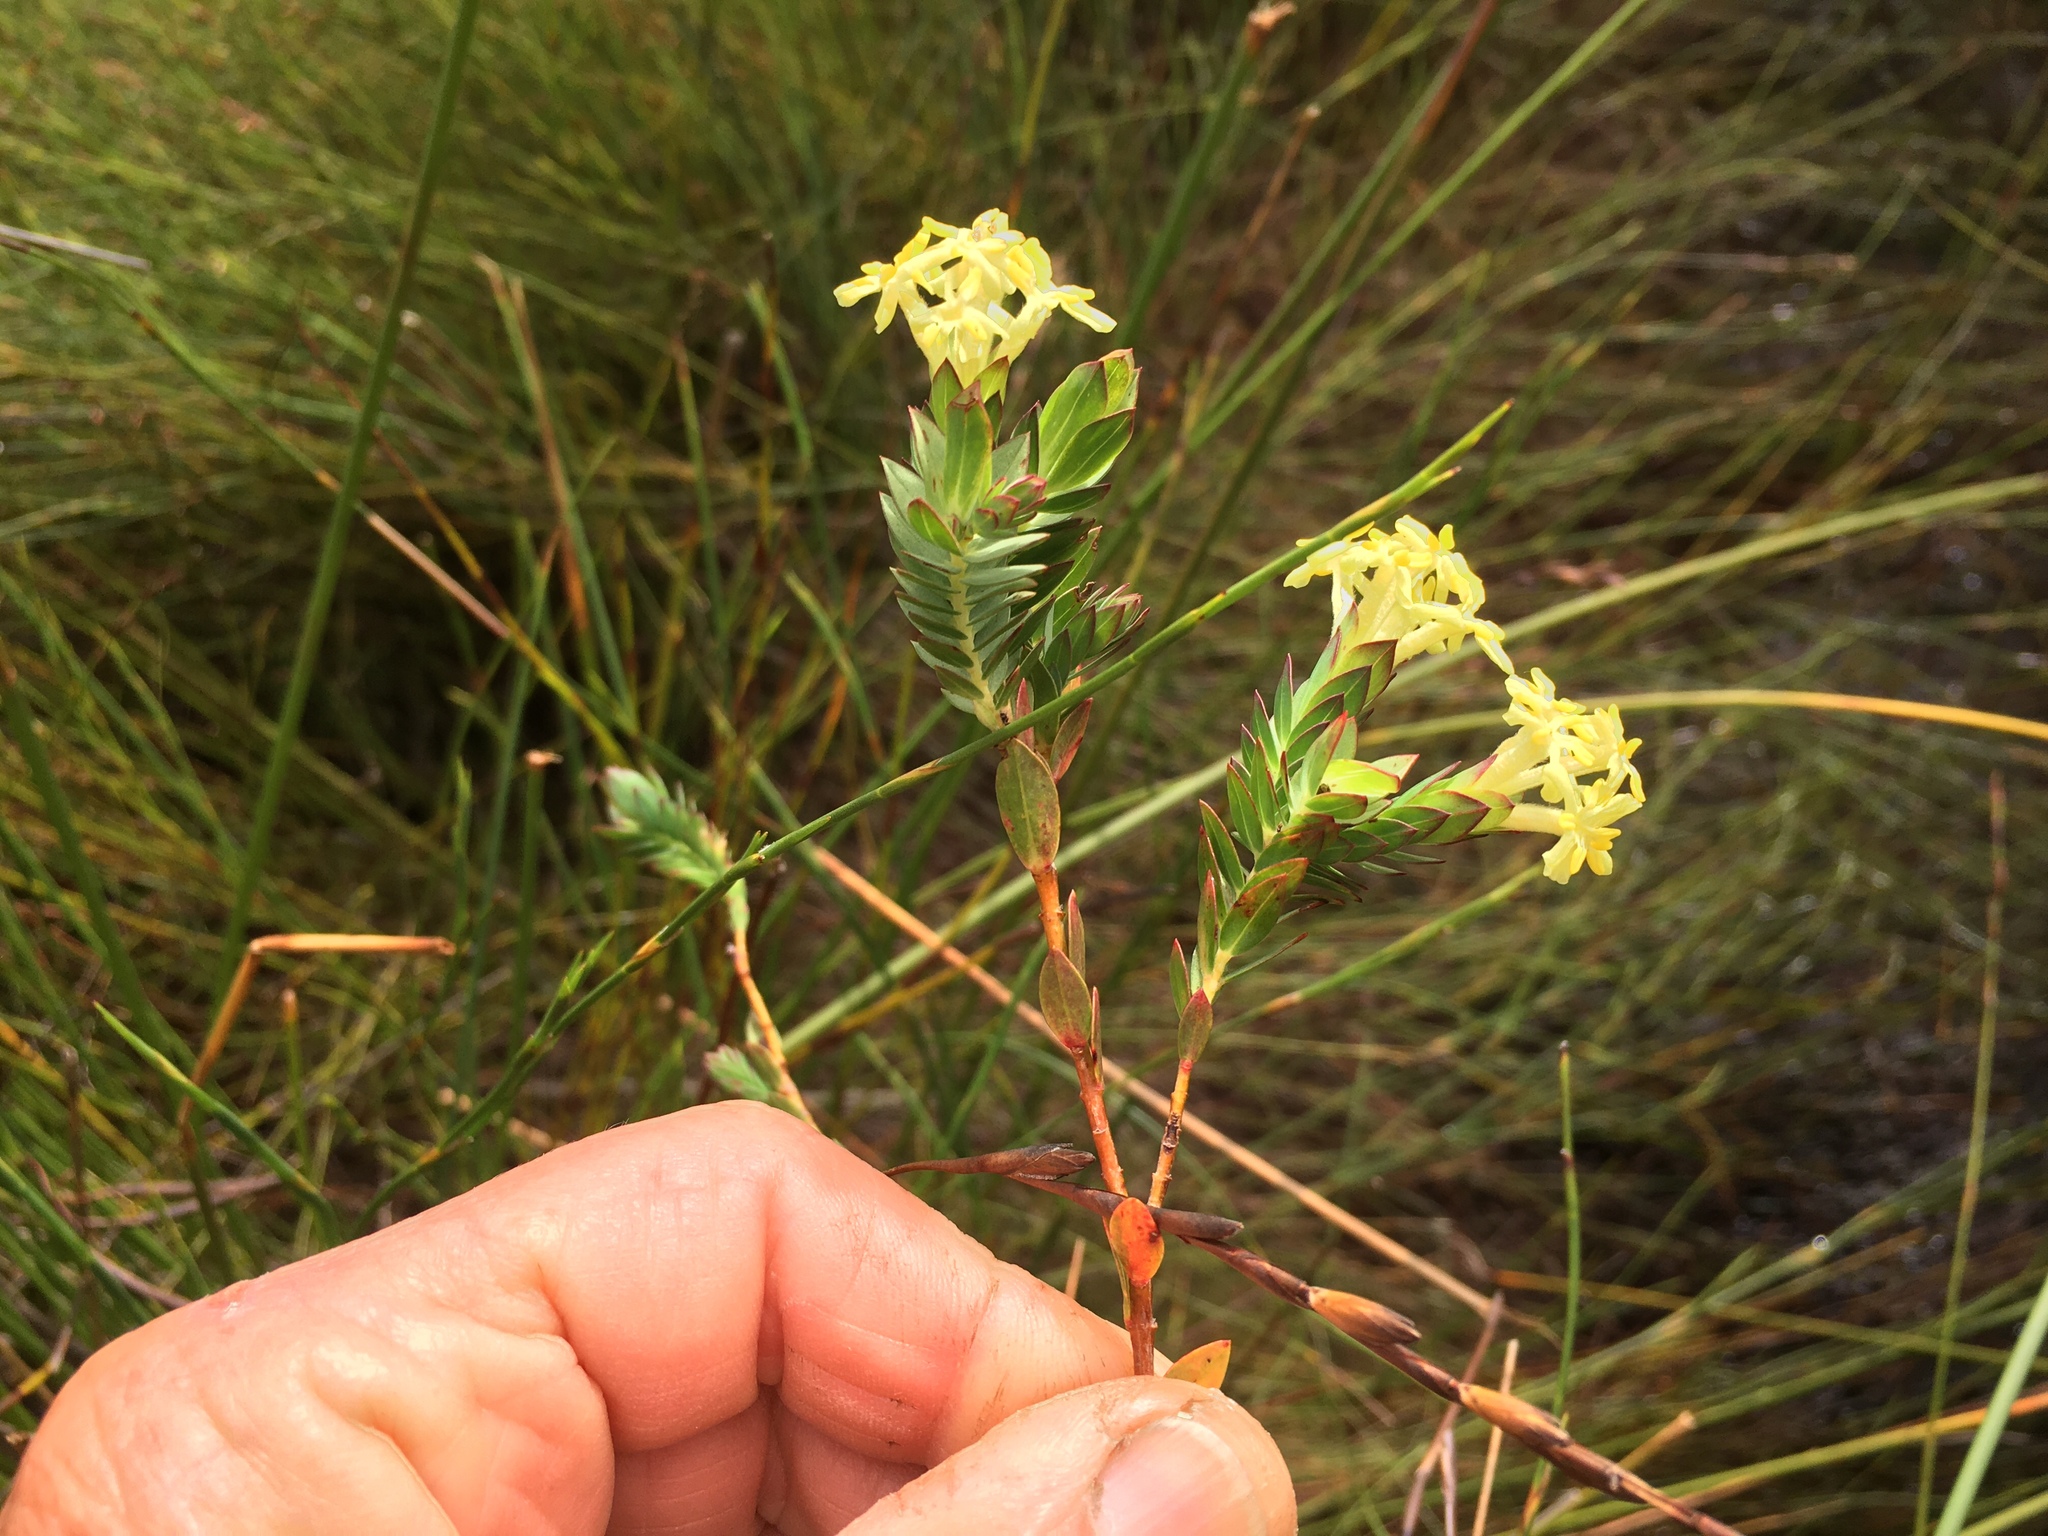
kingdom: Plantae
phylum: Tracheophyta
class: Magnoliopsida
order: Malvales
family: Thymelaeaceae
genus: Gnidia
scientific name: Gnidia oppositifolia
